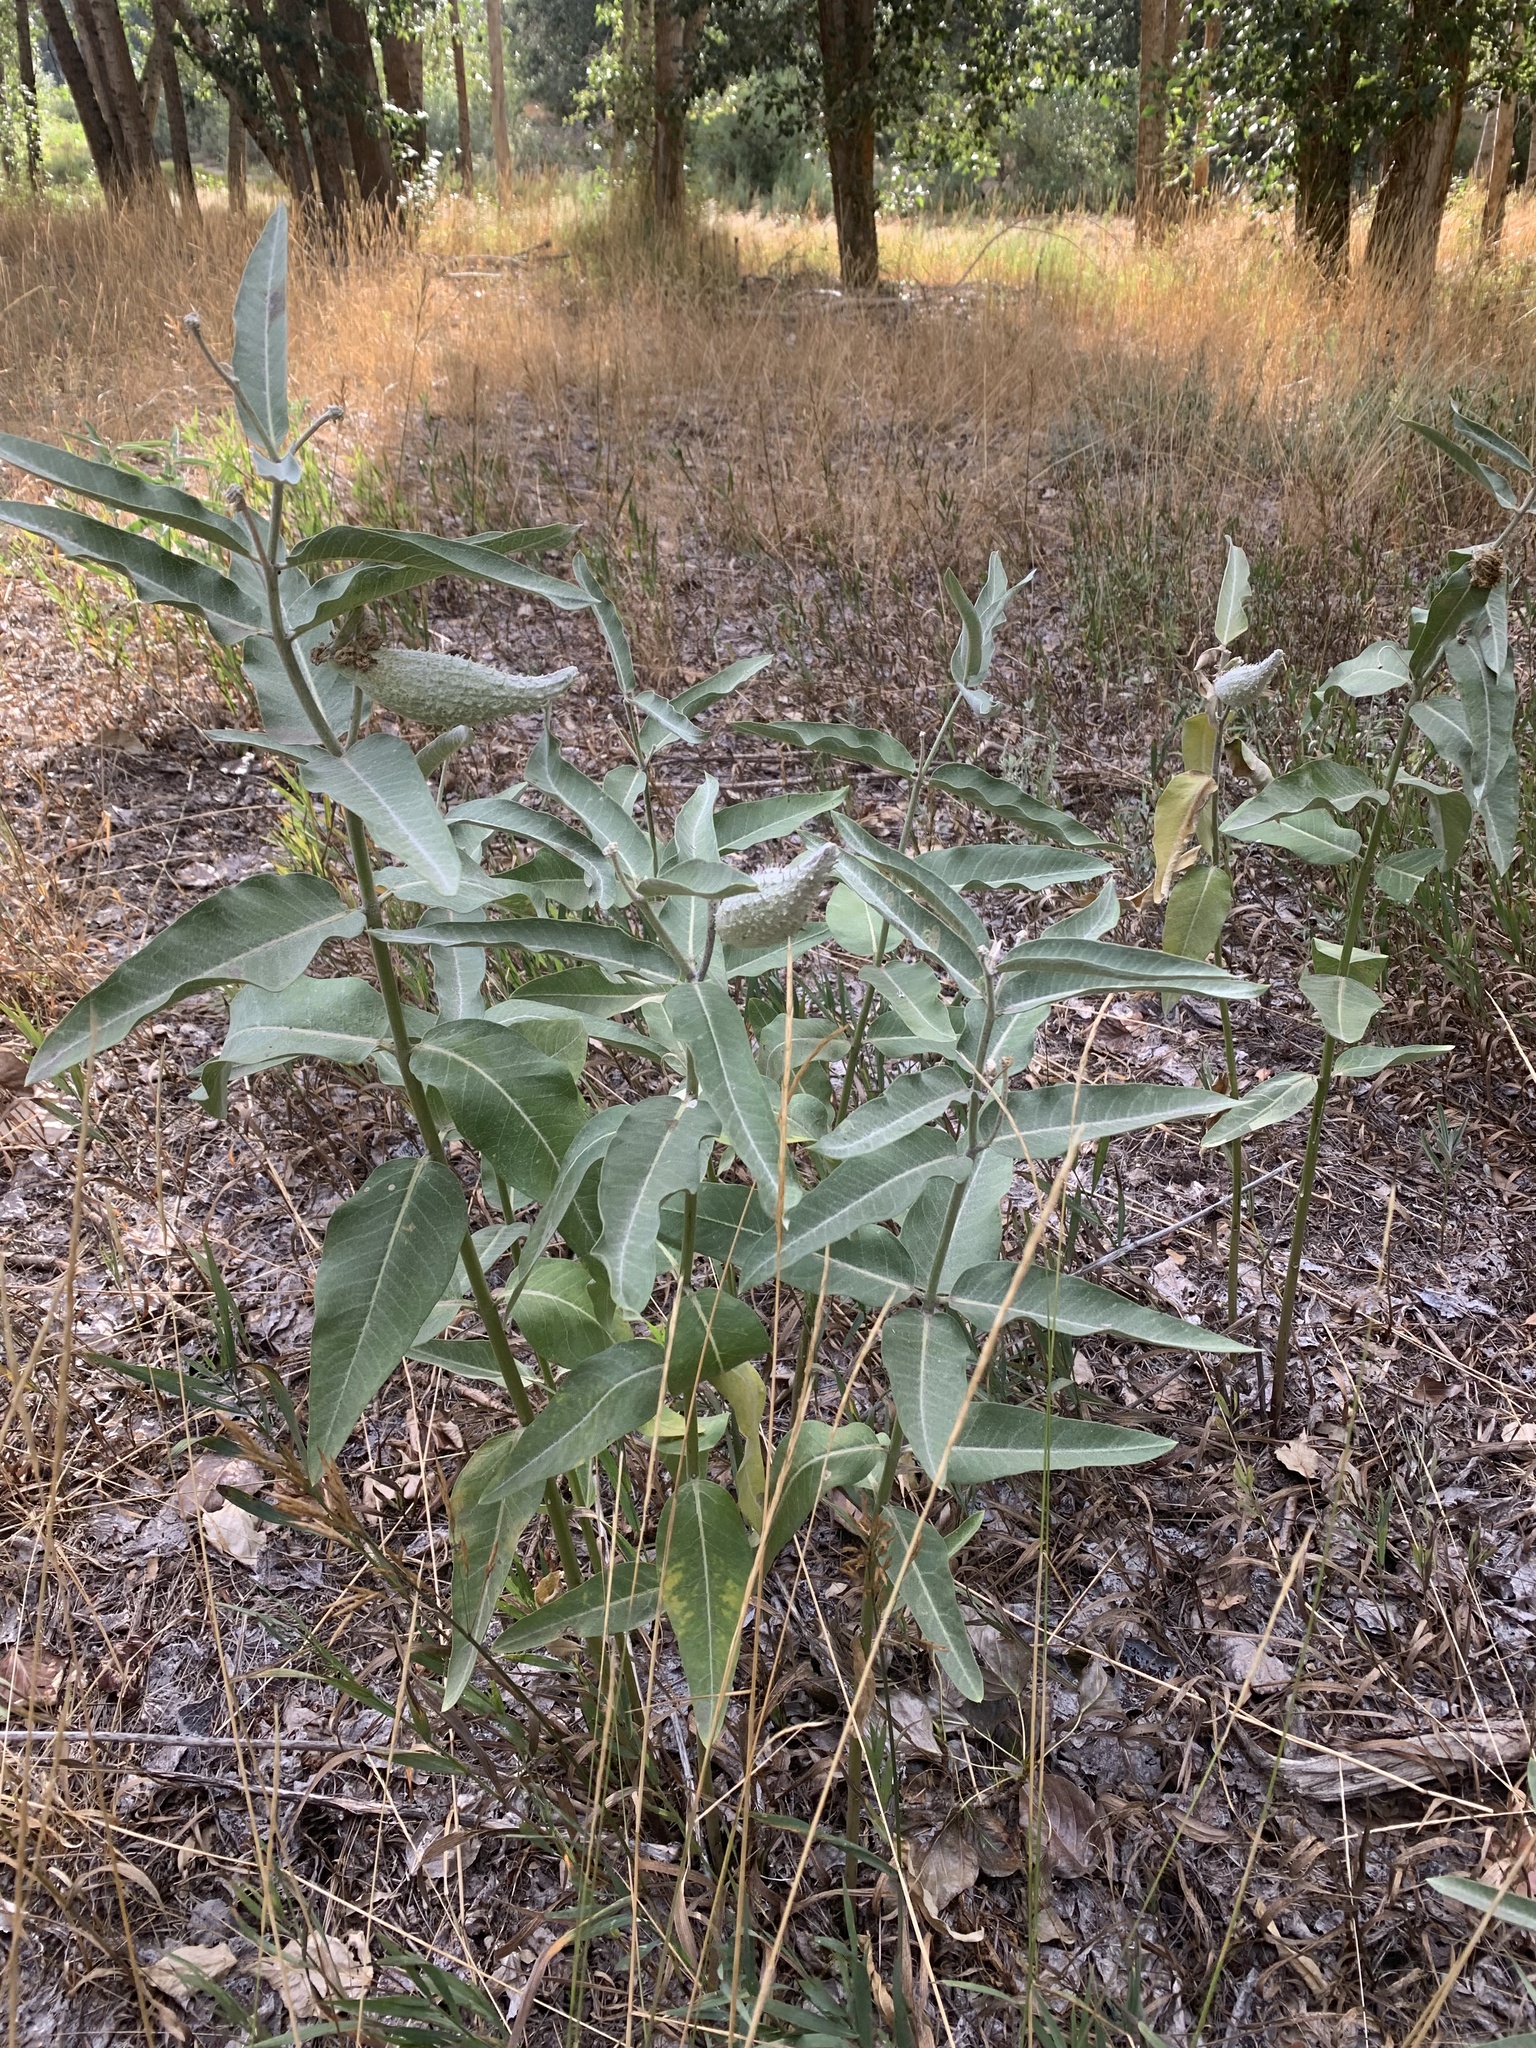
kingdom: Plantae
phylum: Tracheophyta
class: Magnoliopsida
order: Gentianales
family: Apocynaceae
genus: Asclepias
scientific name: Asclepias speciosa
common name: Showy milkweed
